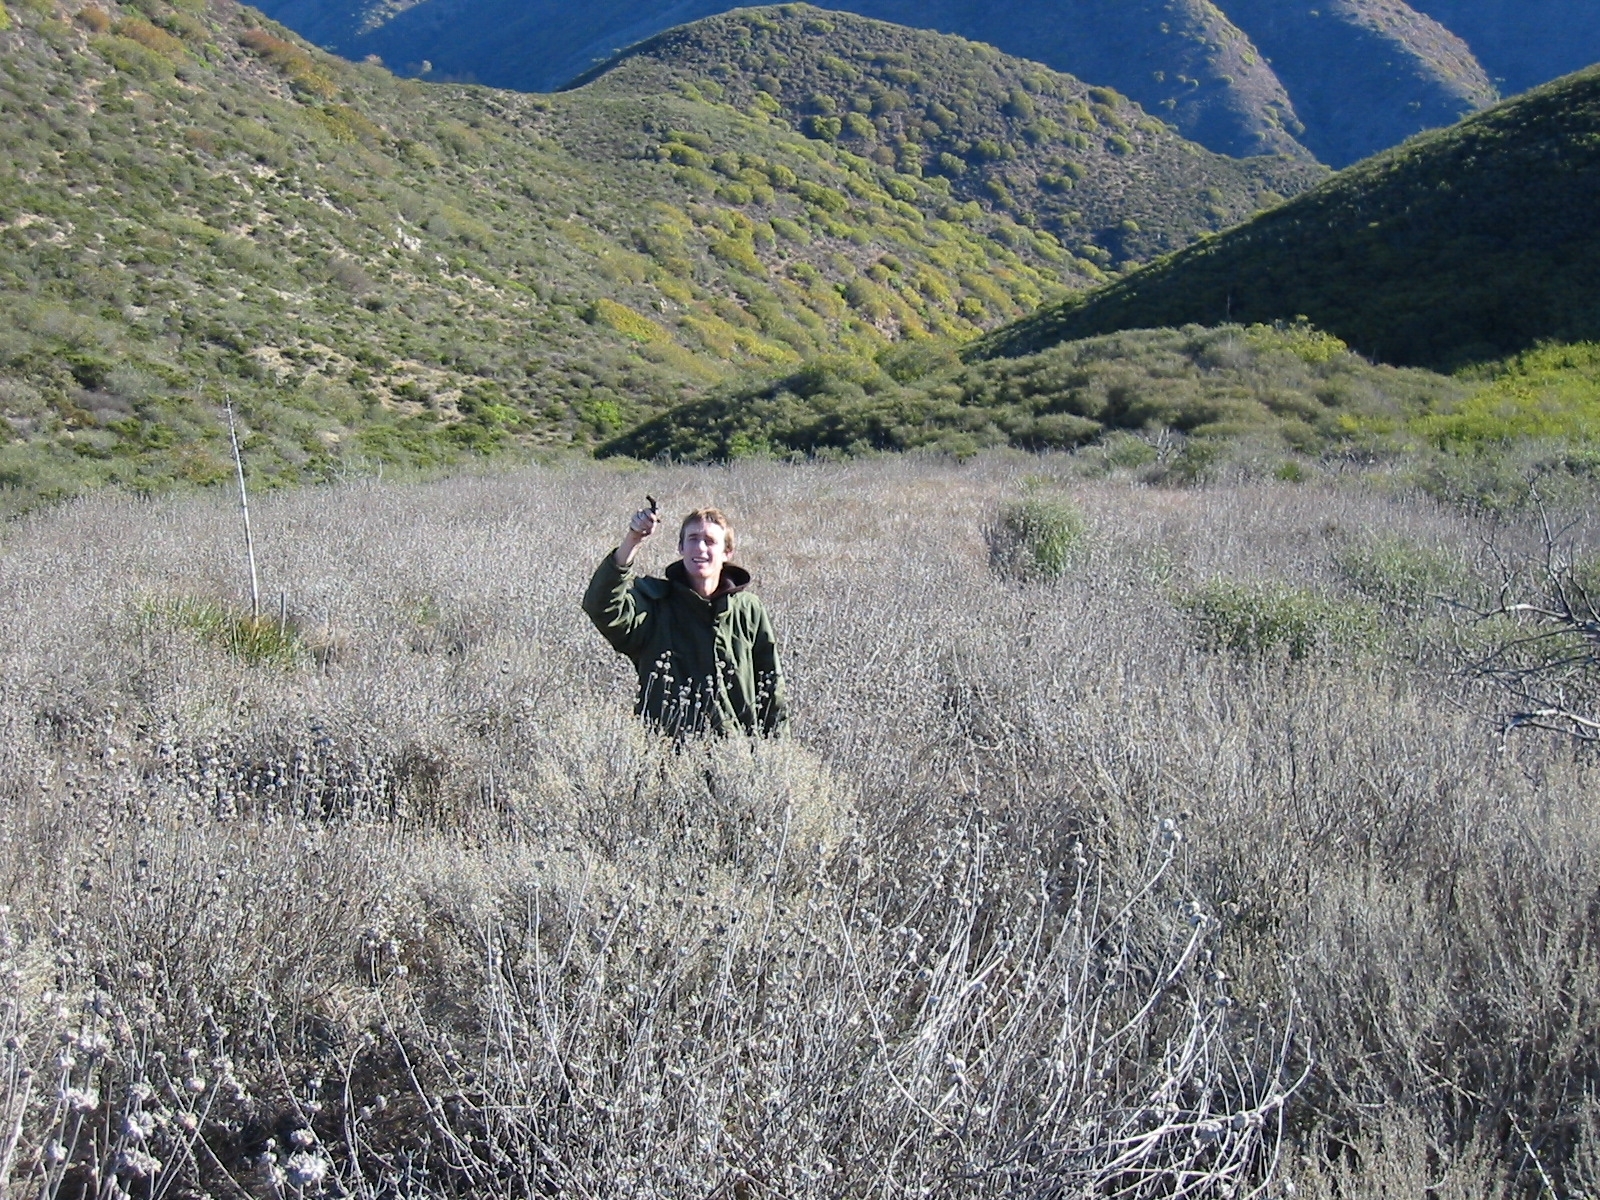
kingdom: Plantae
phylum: Tracheophyta
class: Magnoliopsida
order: Lamiales
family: Lamiaceae
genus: Salvia
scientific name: Salvia leucophylla
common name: Purple sage
